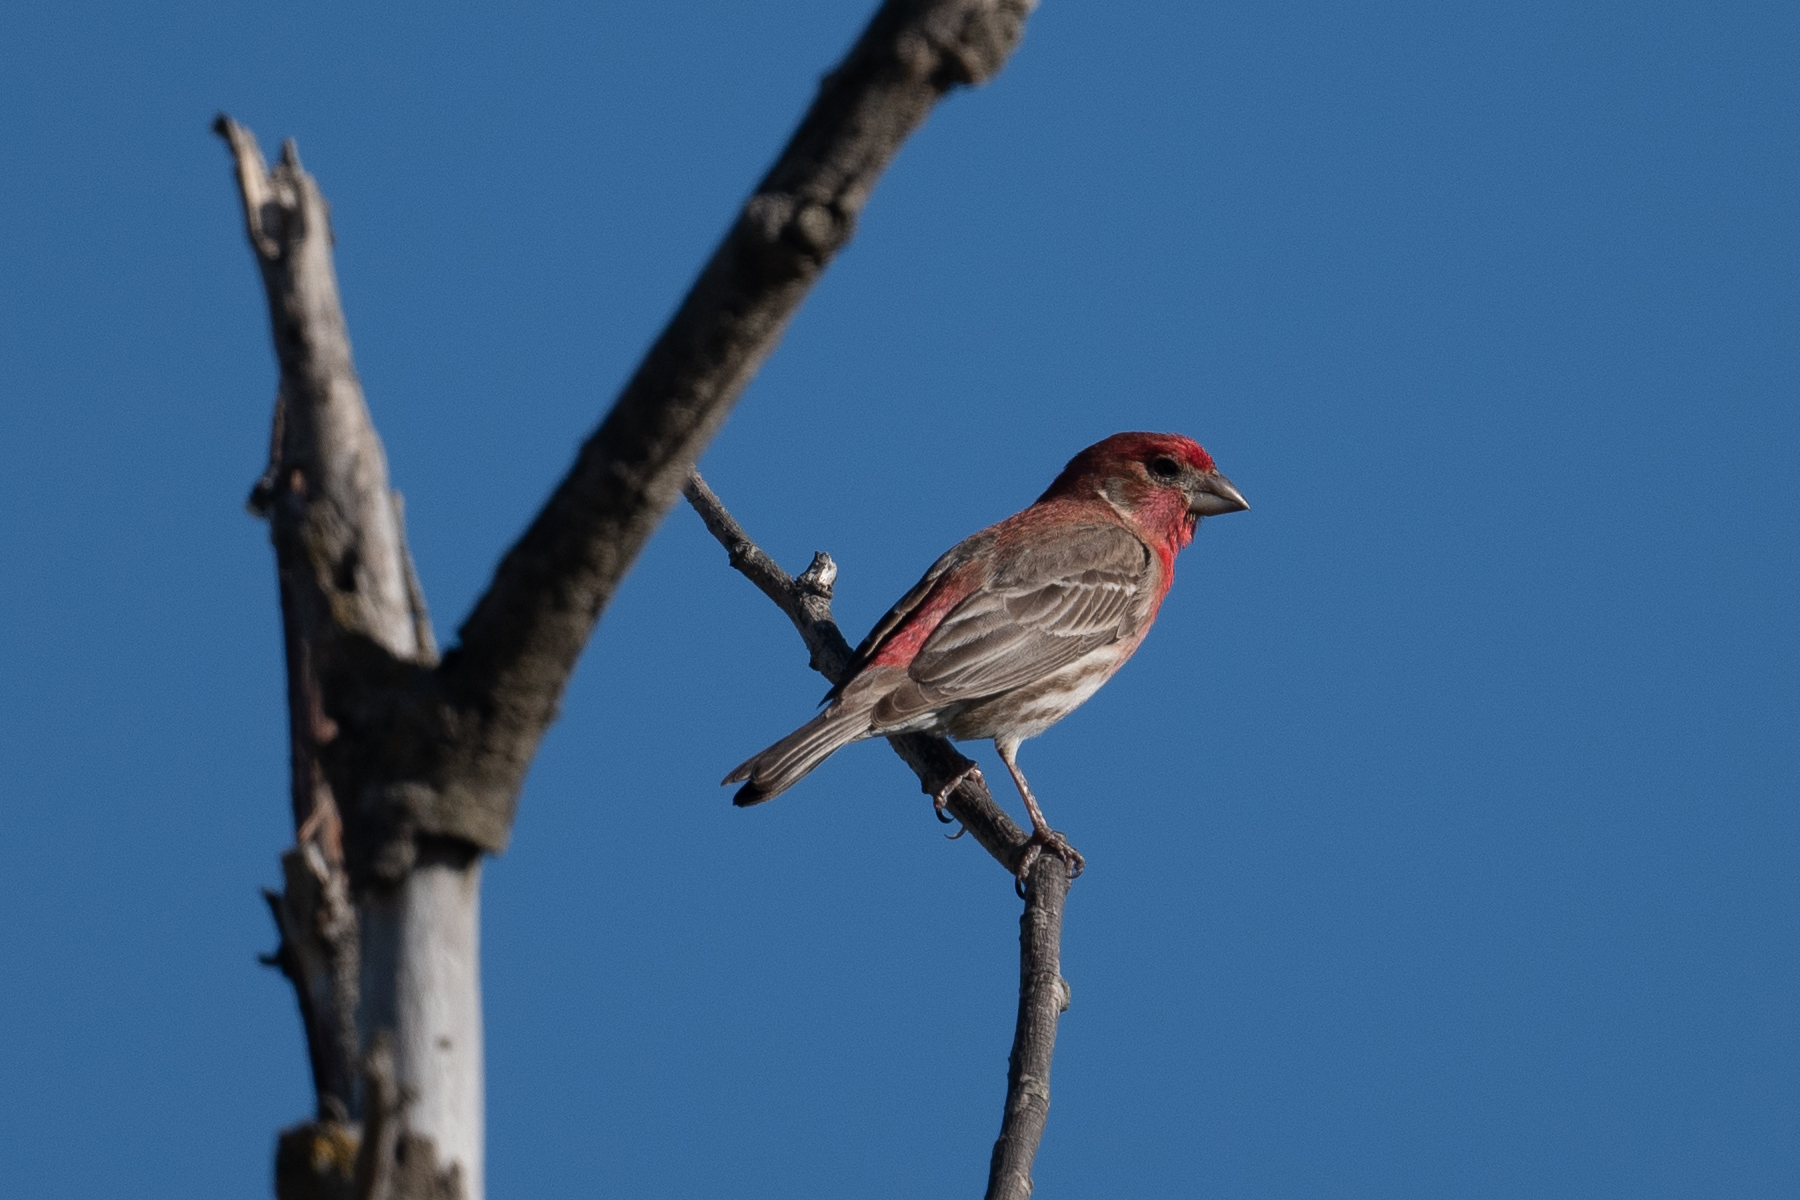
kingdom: Animalia
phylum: Chordata
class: Aves
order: Passeriformes
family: Fringillidae
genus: Haemorhous
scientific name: Haemorhous mexicanus
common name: House finch
